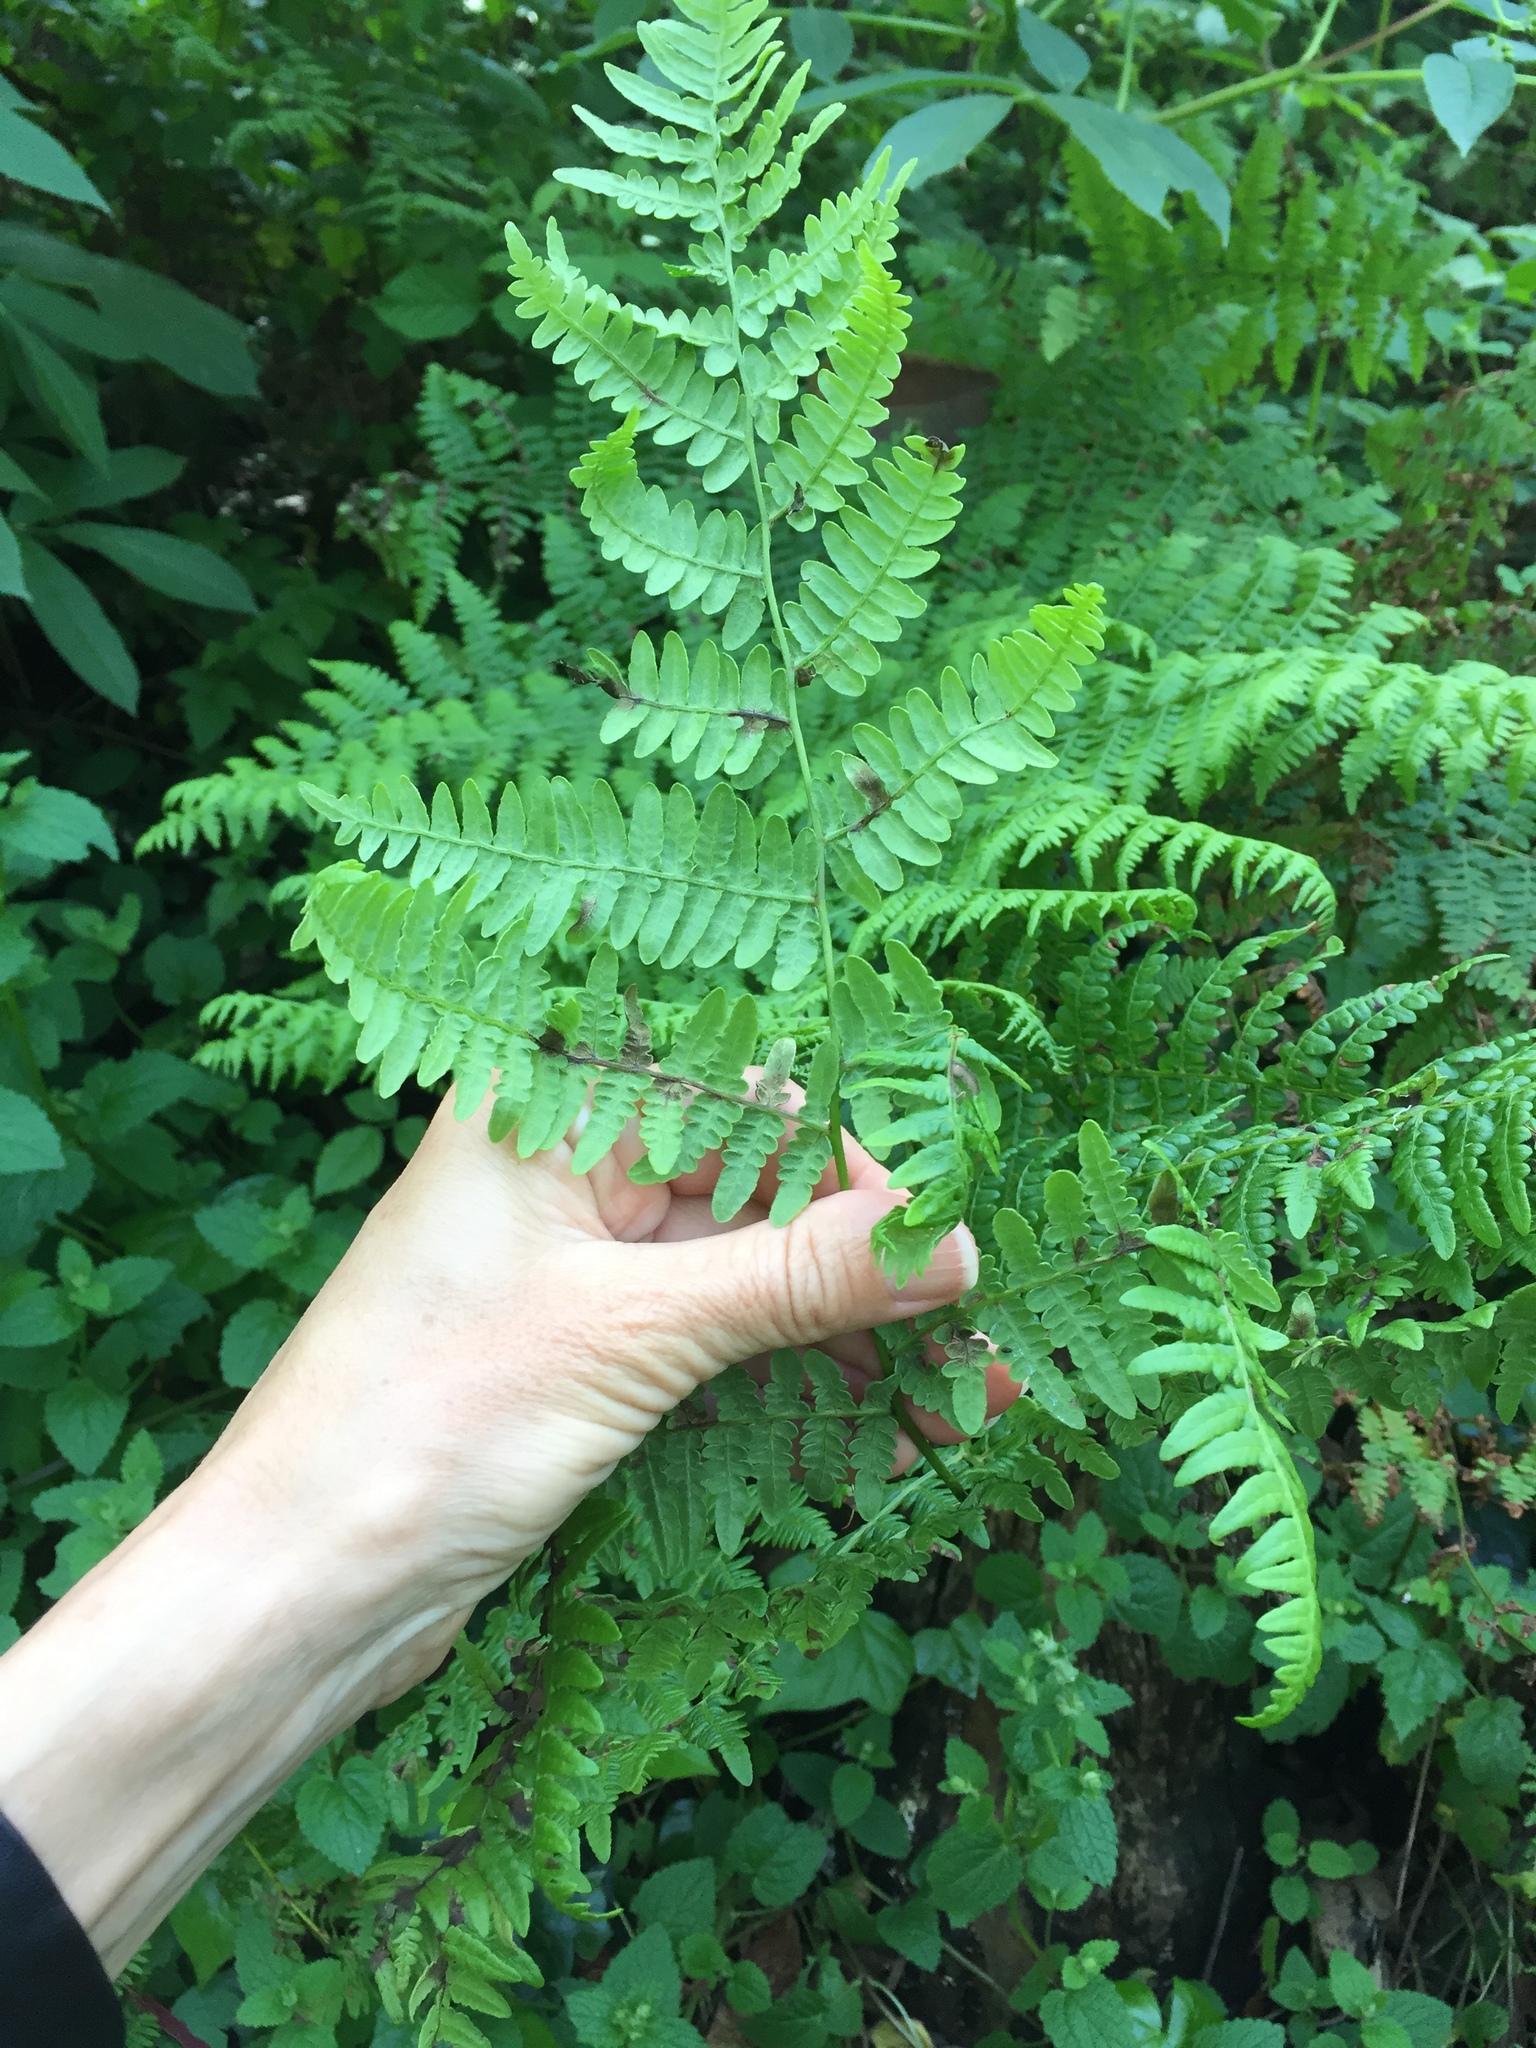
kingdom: Plantae
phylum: Tracheophyta
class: Polypodiopsida
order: Polypodiales
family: Dennstaedtiaceae
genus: Pteridium
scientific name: Pteridium aquilinum
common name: Bracken
